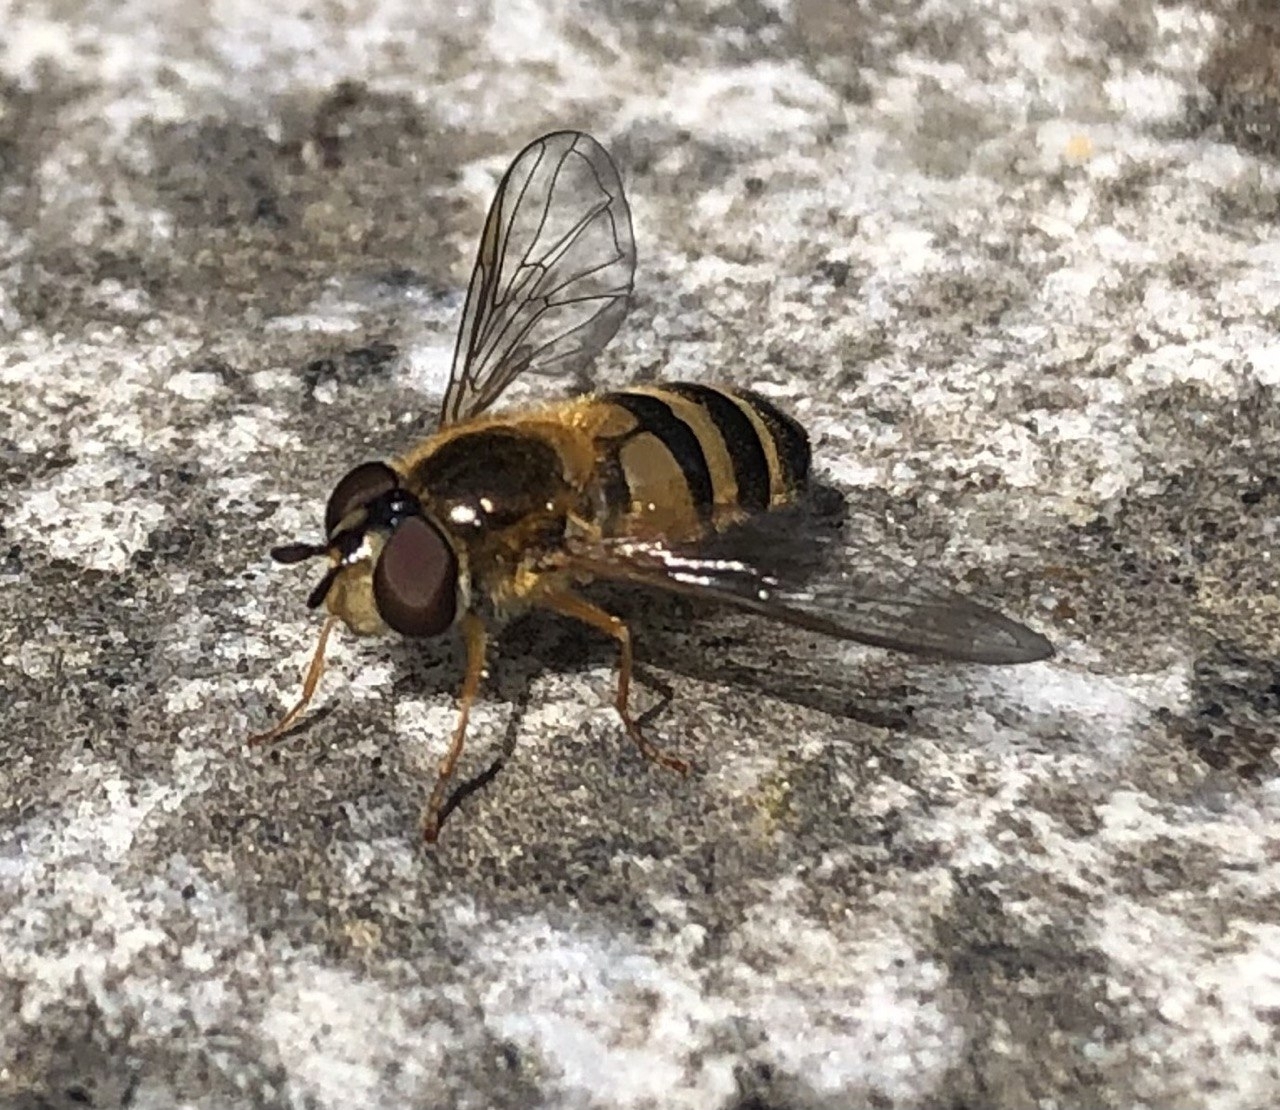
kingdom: Animalia
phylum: Arthropoda
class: Insecta
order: Diptera
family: Syrphidae
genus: Epistrophe
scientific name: Epistrophe eligans
